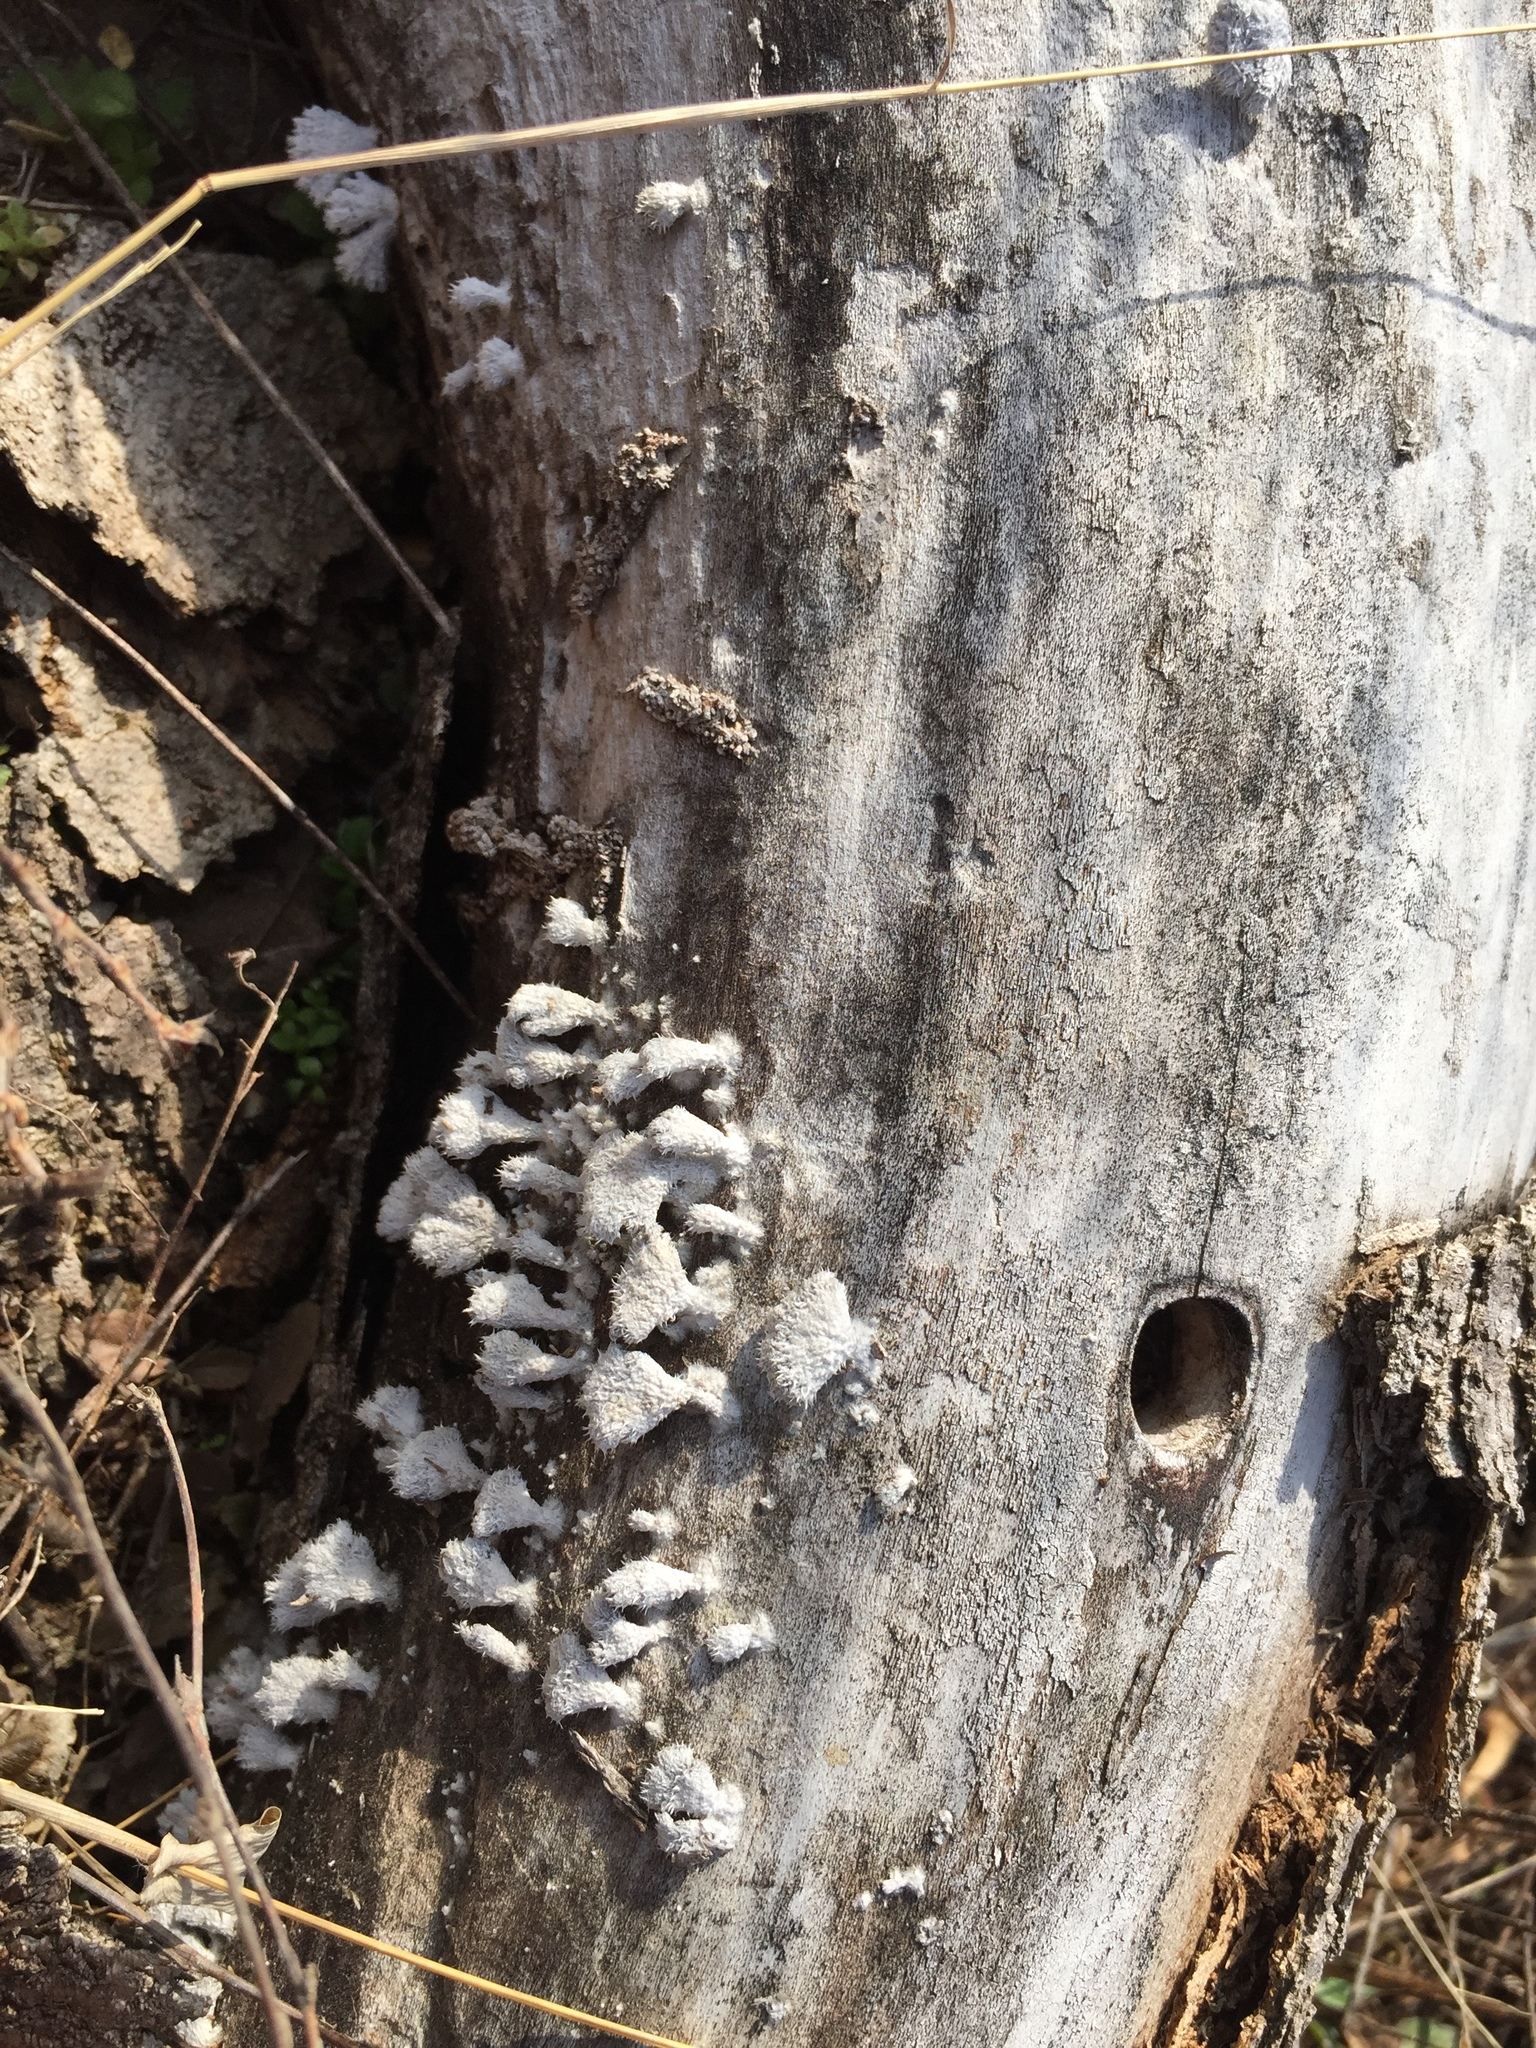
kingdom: Fungi
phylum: Basidiomycota
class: Agaricomycetes
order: Agaricales
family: Schizophyllaceae
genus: Schizophyllum
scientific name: Schizophyllum commune
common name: Common porecrust
